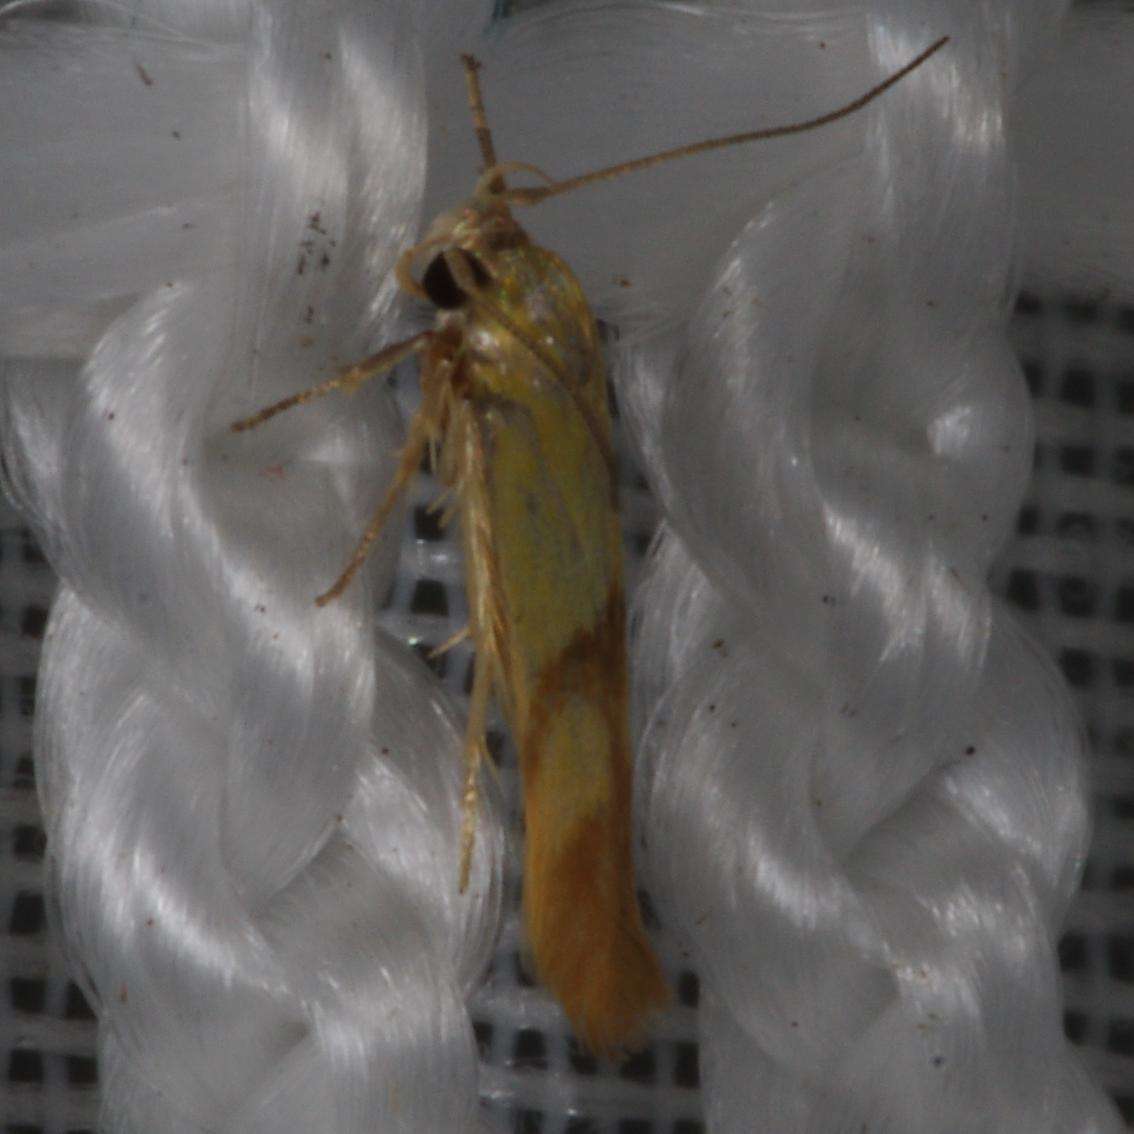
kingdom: Animalia
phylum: Arthropoda
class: Insecta
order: Lepidoptera
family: Stathmopodidae
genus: Stathmopoda
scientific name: Stathmopoda auriferella
